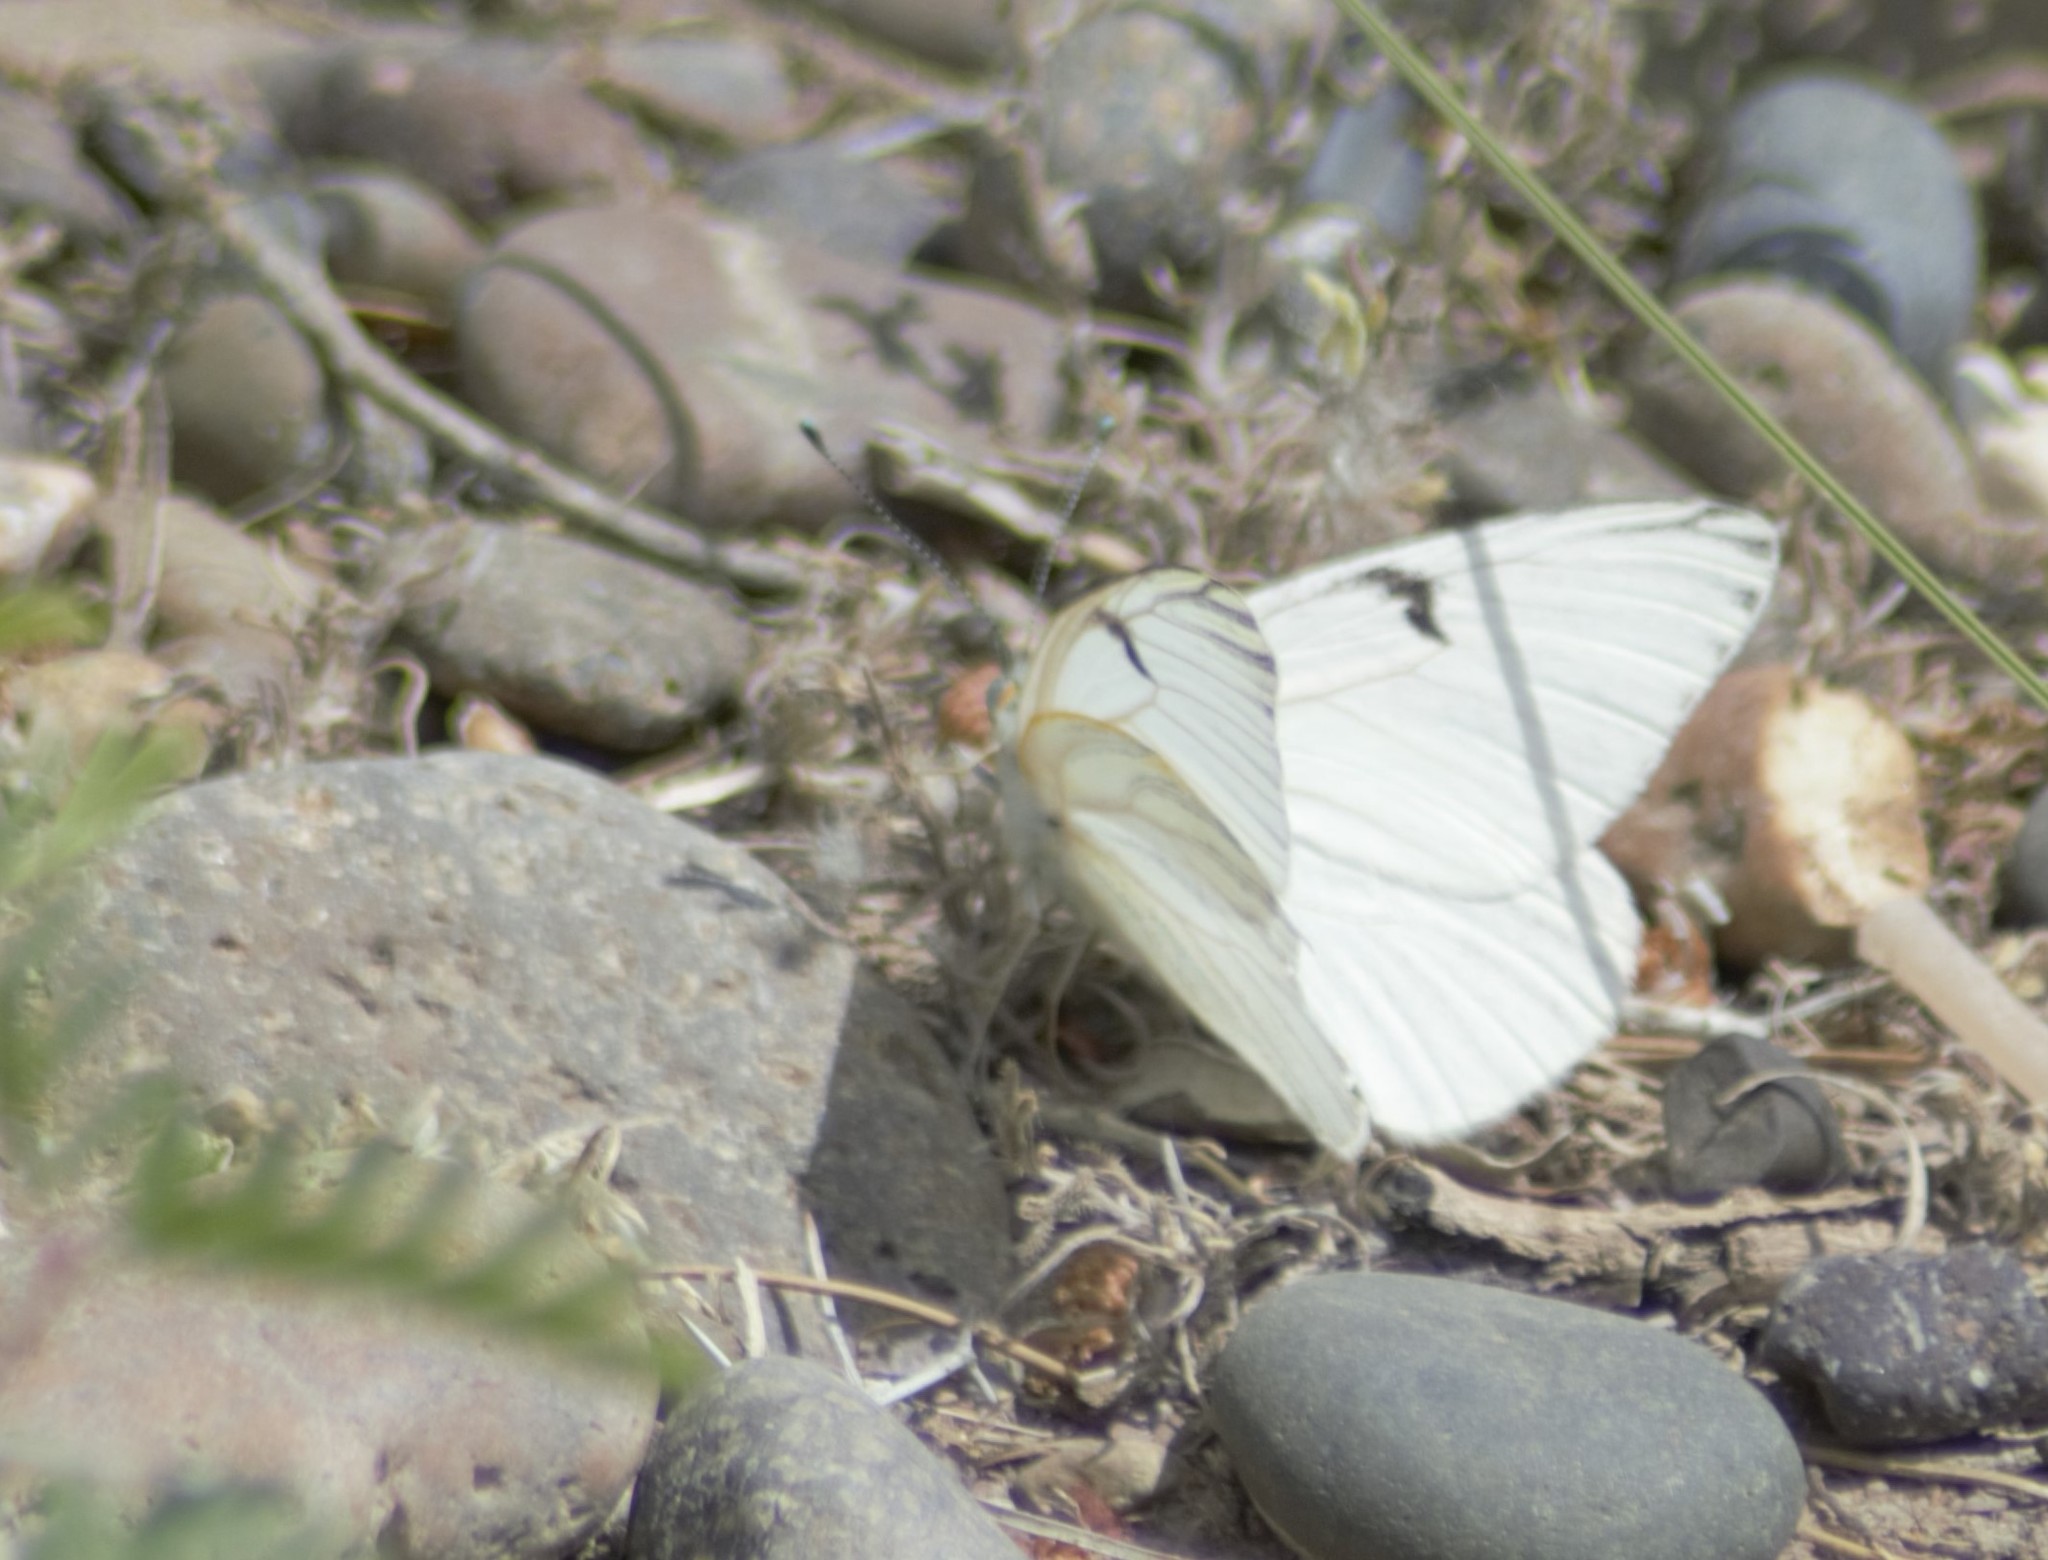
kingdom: Animalia
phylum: Arthropoda
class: Insecta
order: Lepidoptera
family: Pieridae
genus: Tatochila
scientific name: Tatochila mercedis
